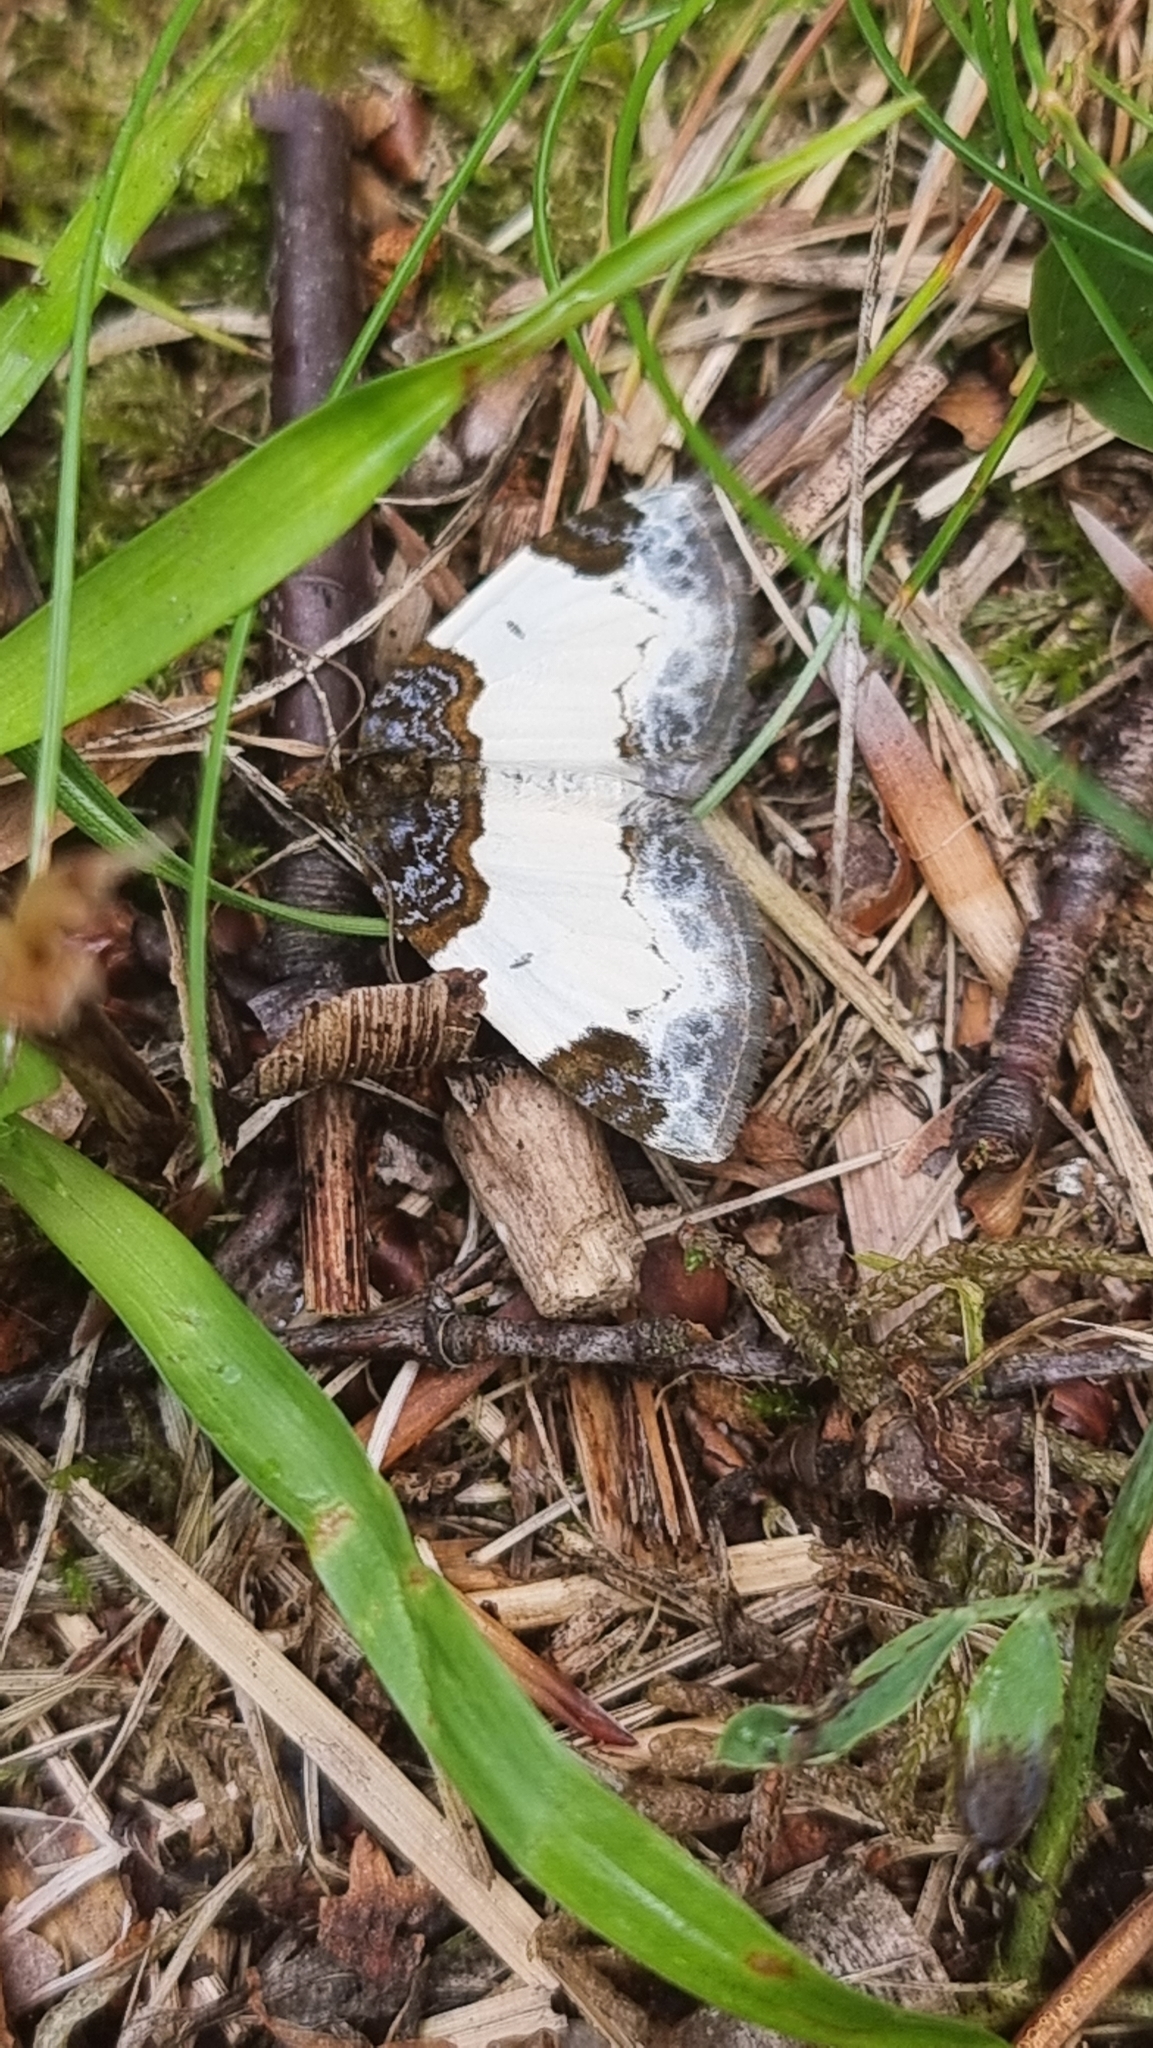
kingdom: Animalia
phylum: Arthropoda
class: Insecta
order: Lepidoptera
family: Geometridae
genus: Mesoleuca
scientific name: Mesoleuca albicillata
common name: Beautiful carpet
